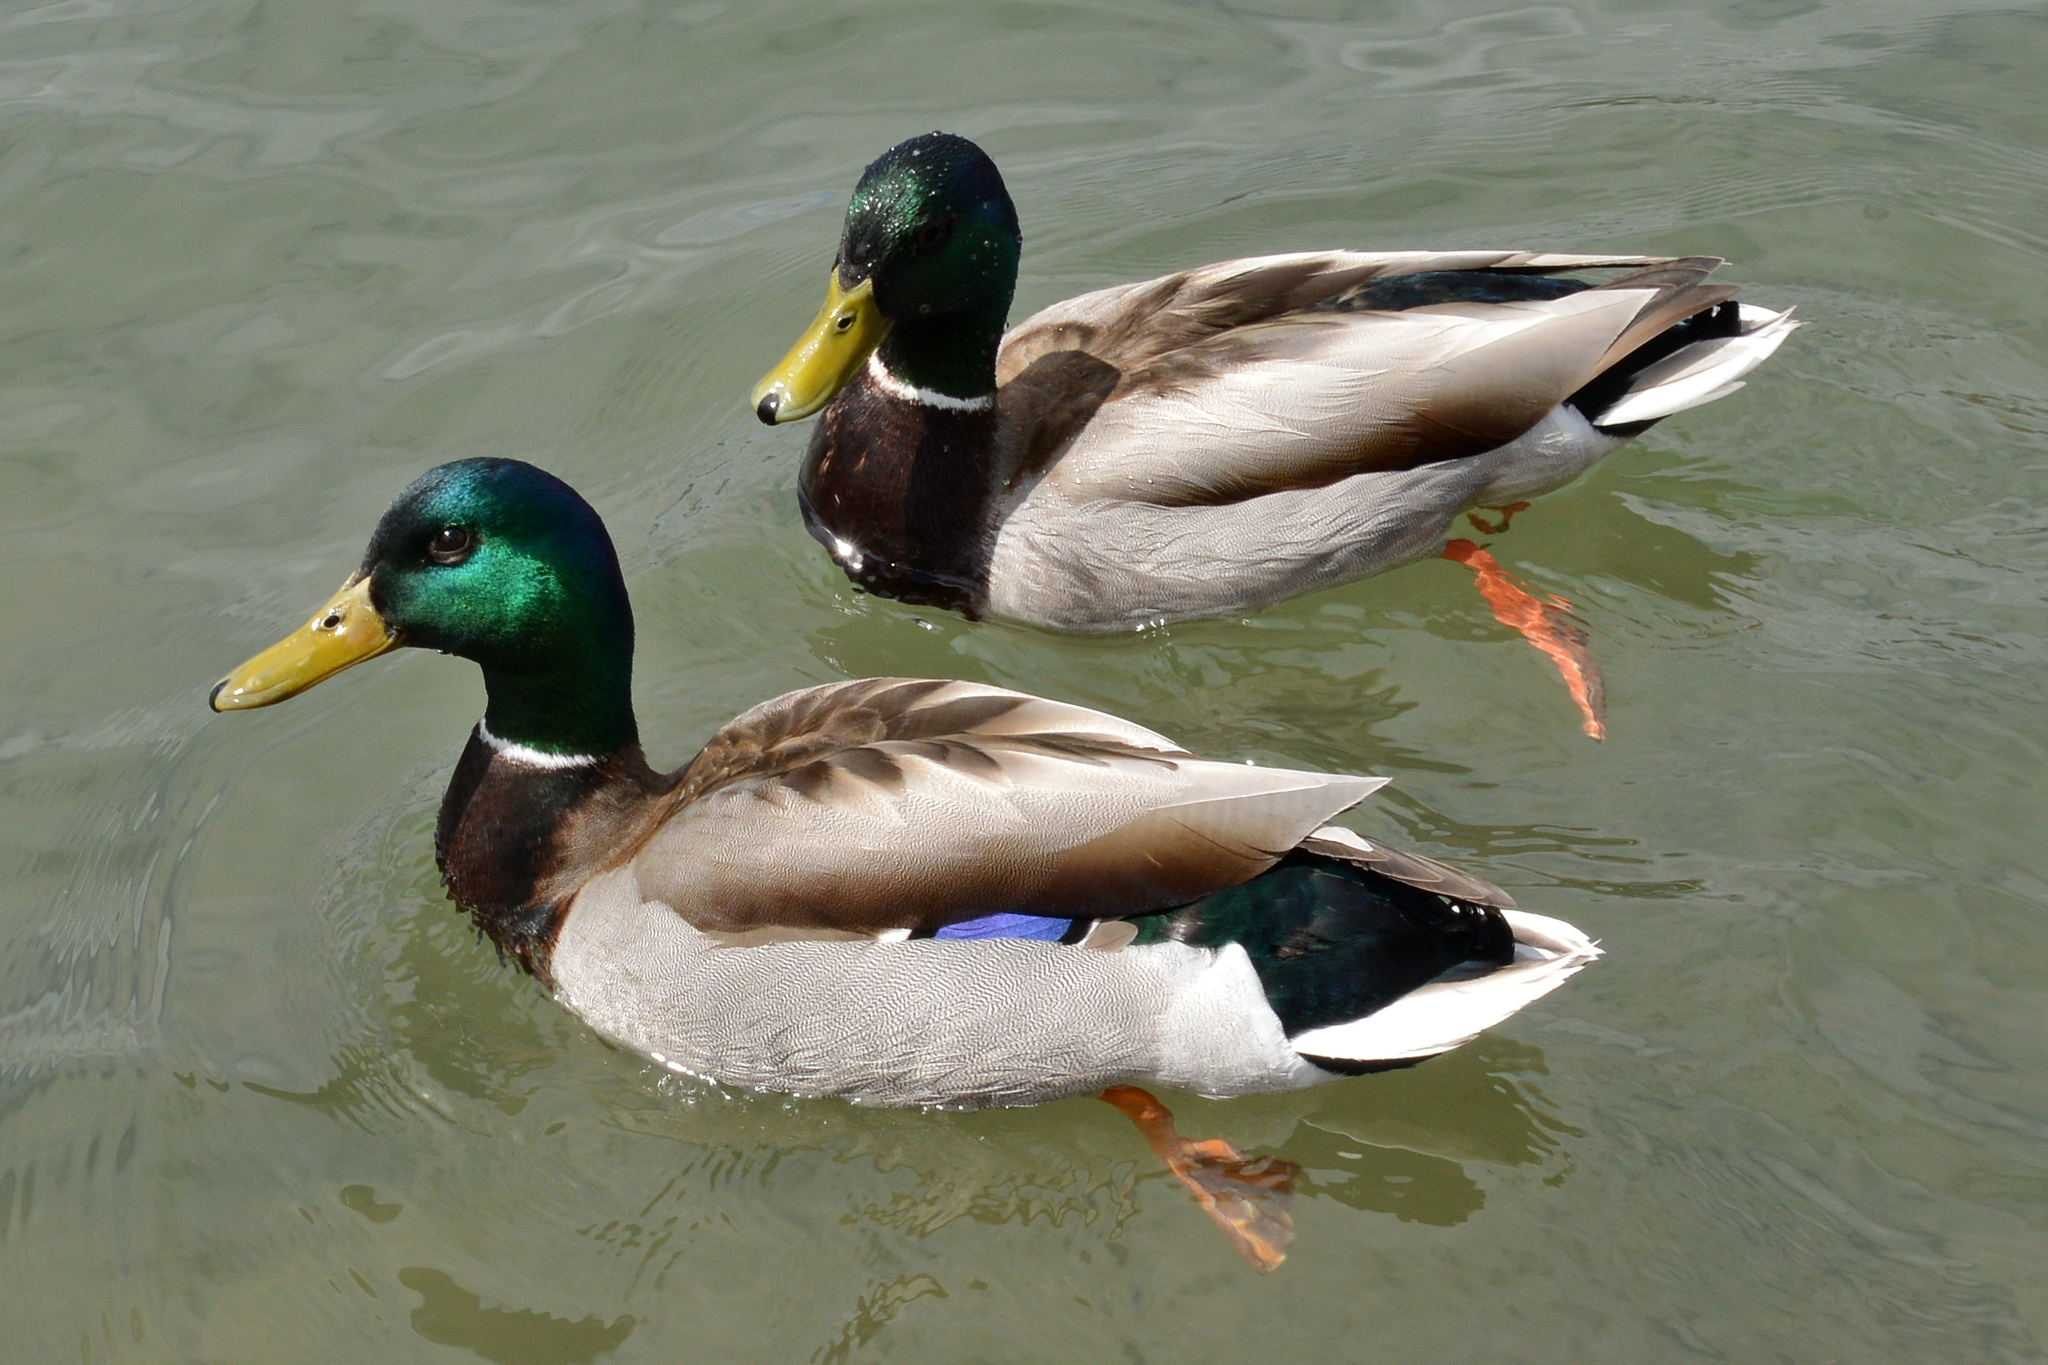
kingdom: Animalia
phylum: Chordata
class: Aves
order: Anseriformes
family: Anatidae
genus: Anas
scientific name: Anas platyrhynchos
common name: Mallard
